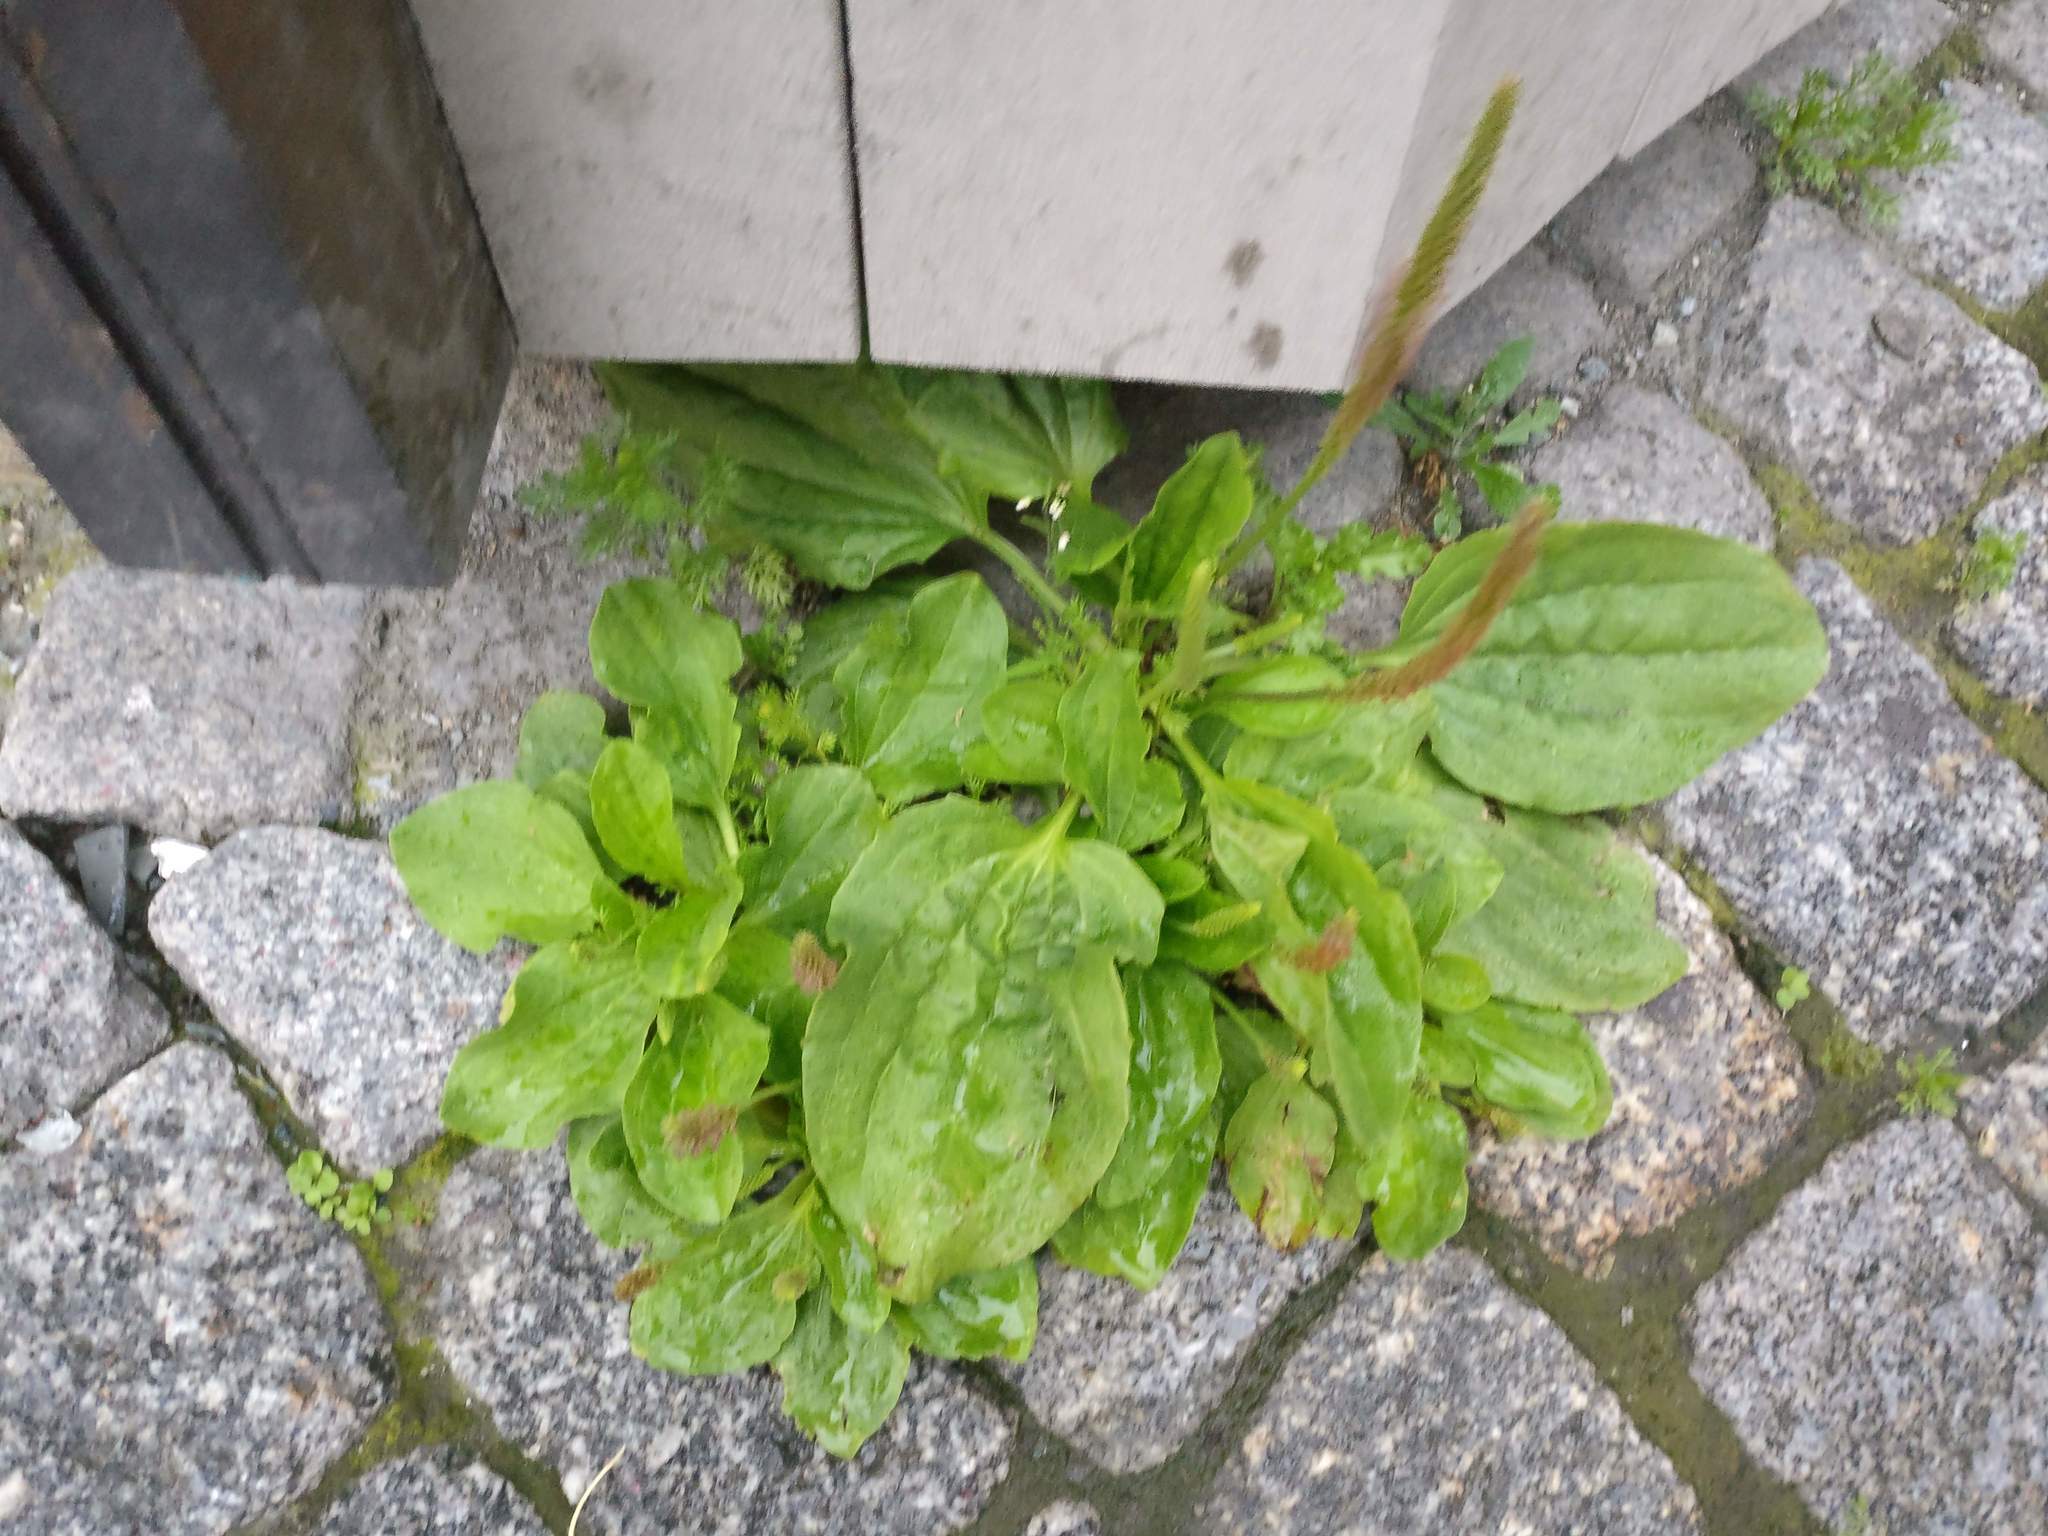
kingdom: Plantae
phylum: Tracheophyta
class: Magnoliopsida
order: Lamiales
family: Plantaginaceae
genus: Plantago
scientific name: Plantago major
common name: Common plantain
